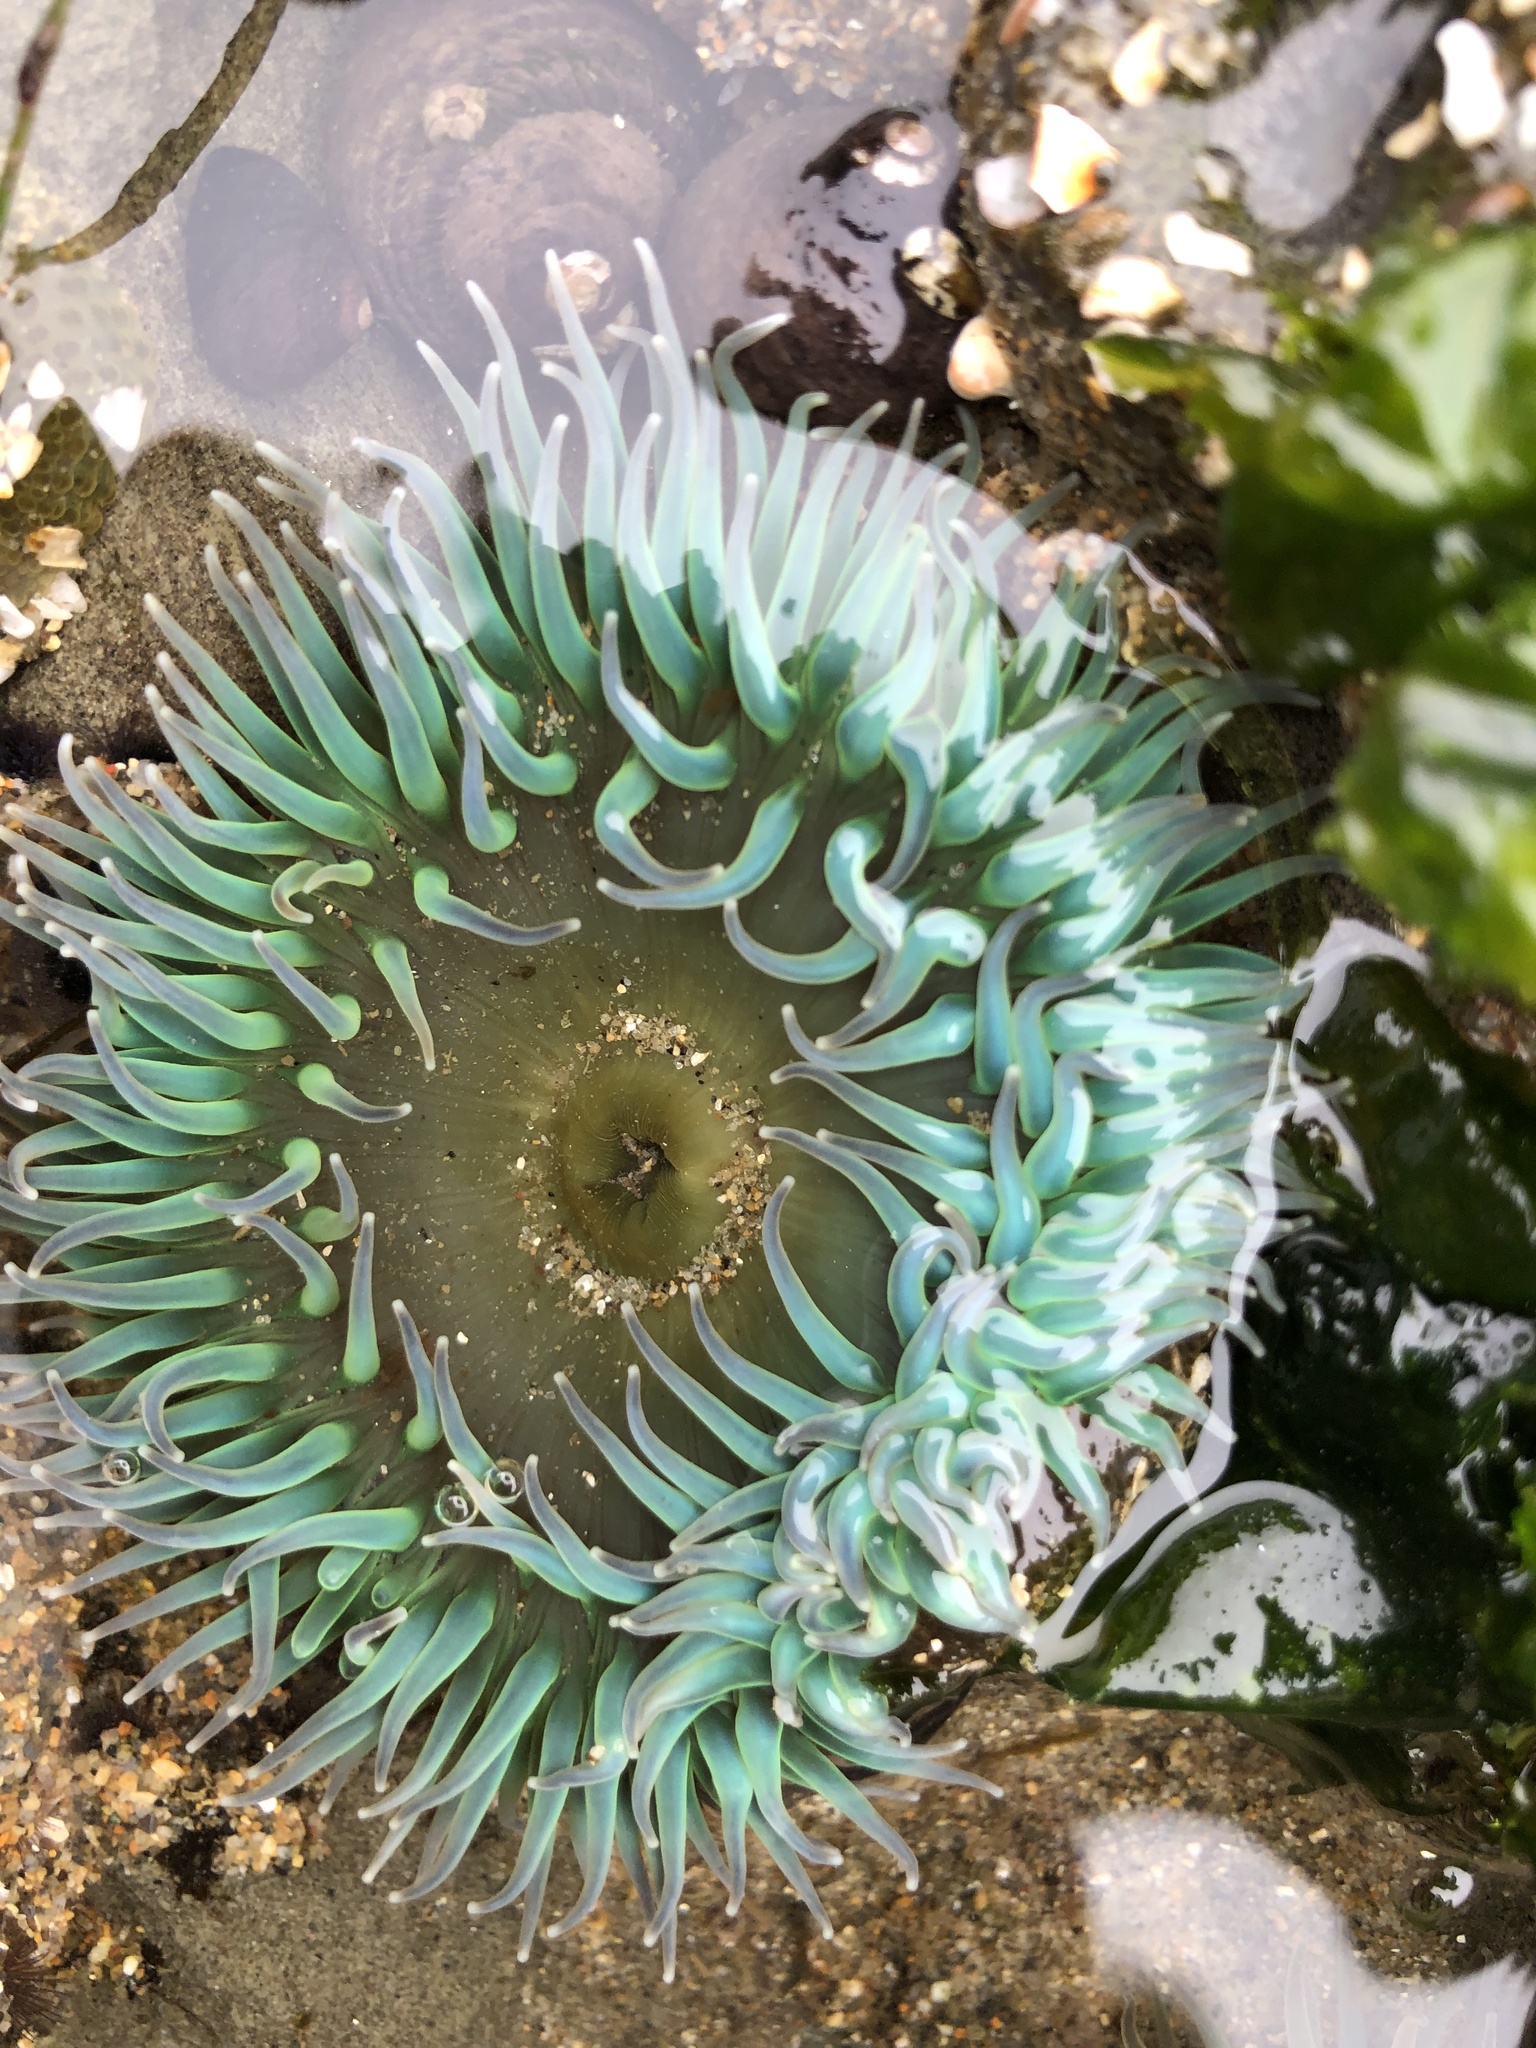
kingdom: Animalia
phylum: Cnidaria
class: Anthozoa
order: Actiniaria
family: Actiniidae
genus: Anthopleura
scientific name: Anthopleura xanthogrammica
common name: Giant green anemone
